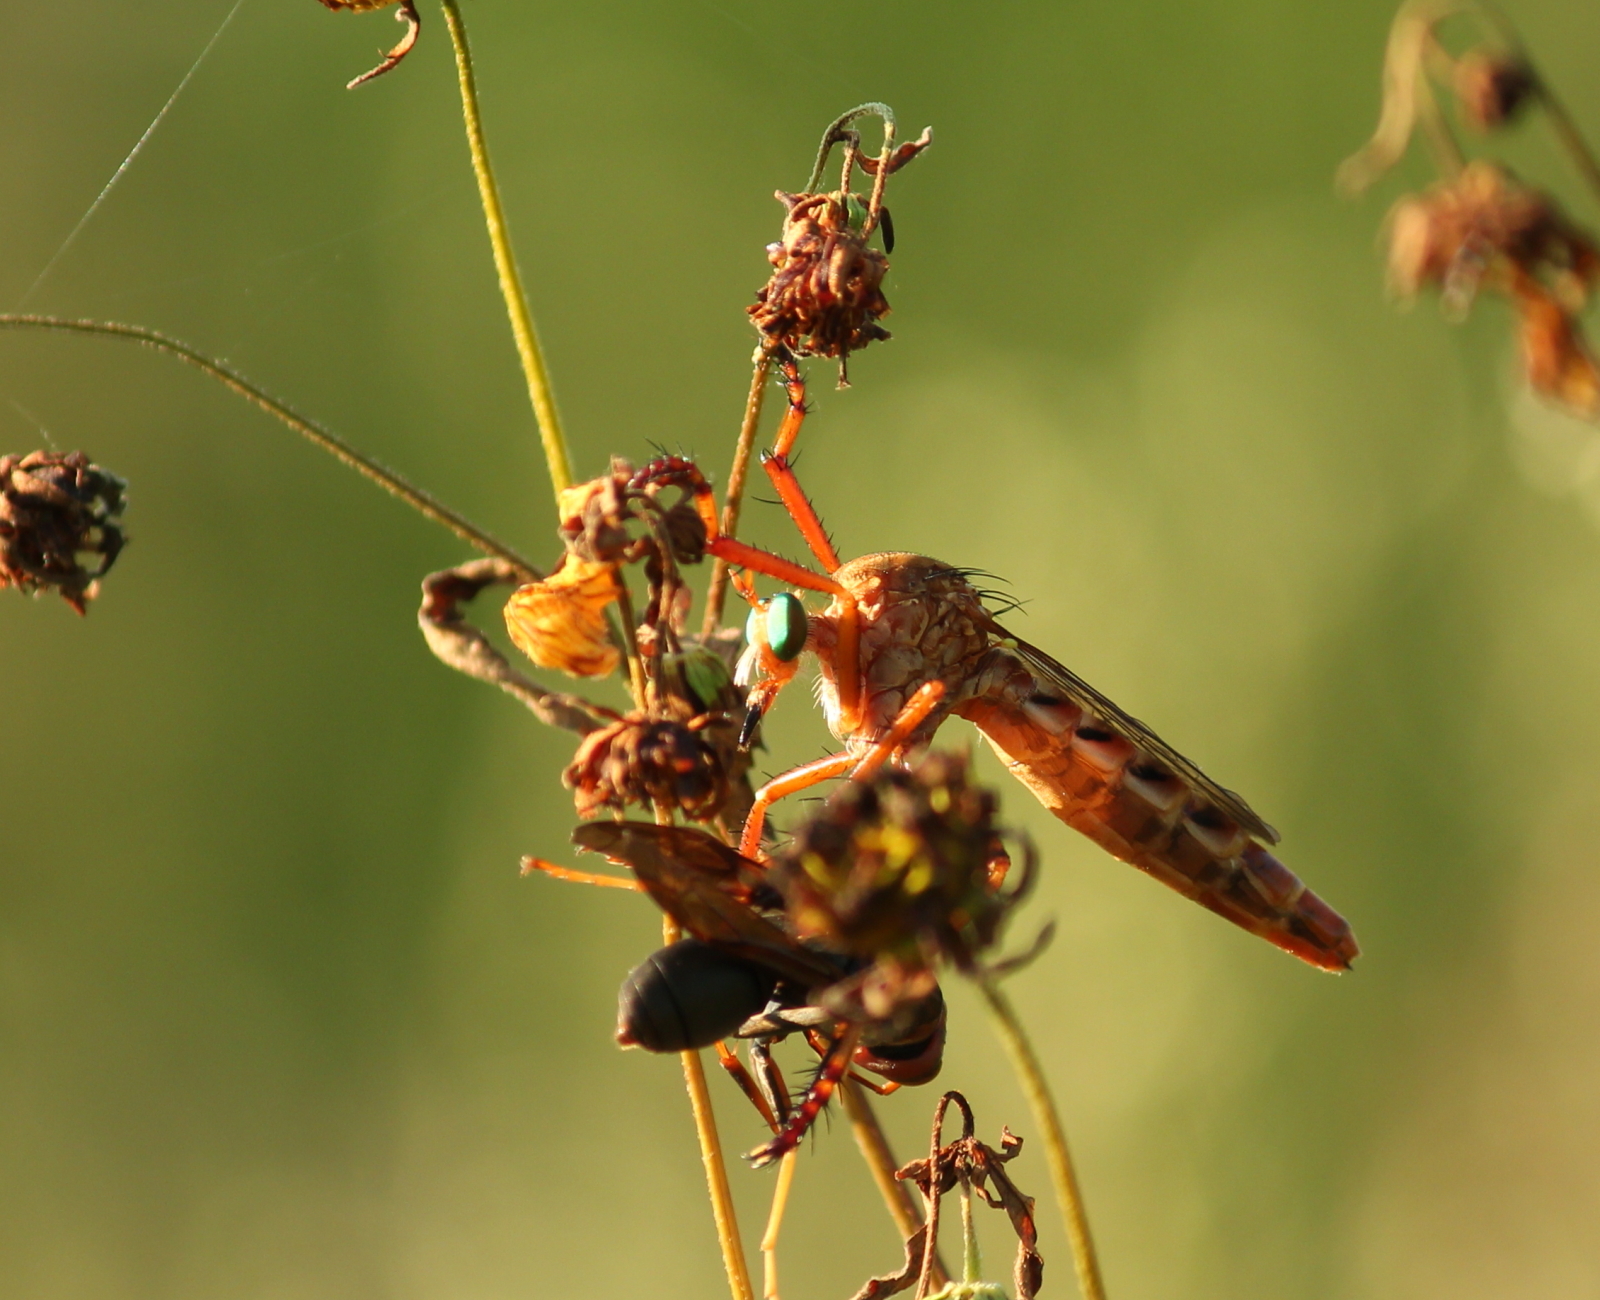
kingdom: Animalia
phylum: Arthropoda
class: Insecta
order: Diptera
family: Asilidae
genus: Diogmites
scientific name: Diogmites angustipennis
